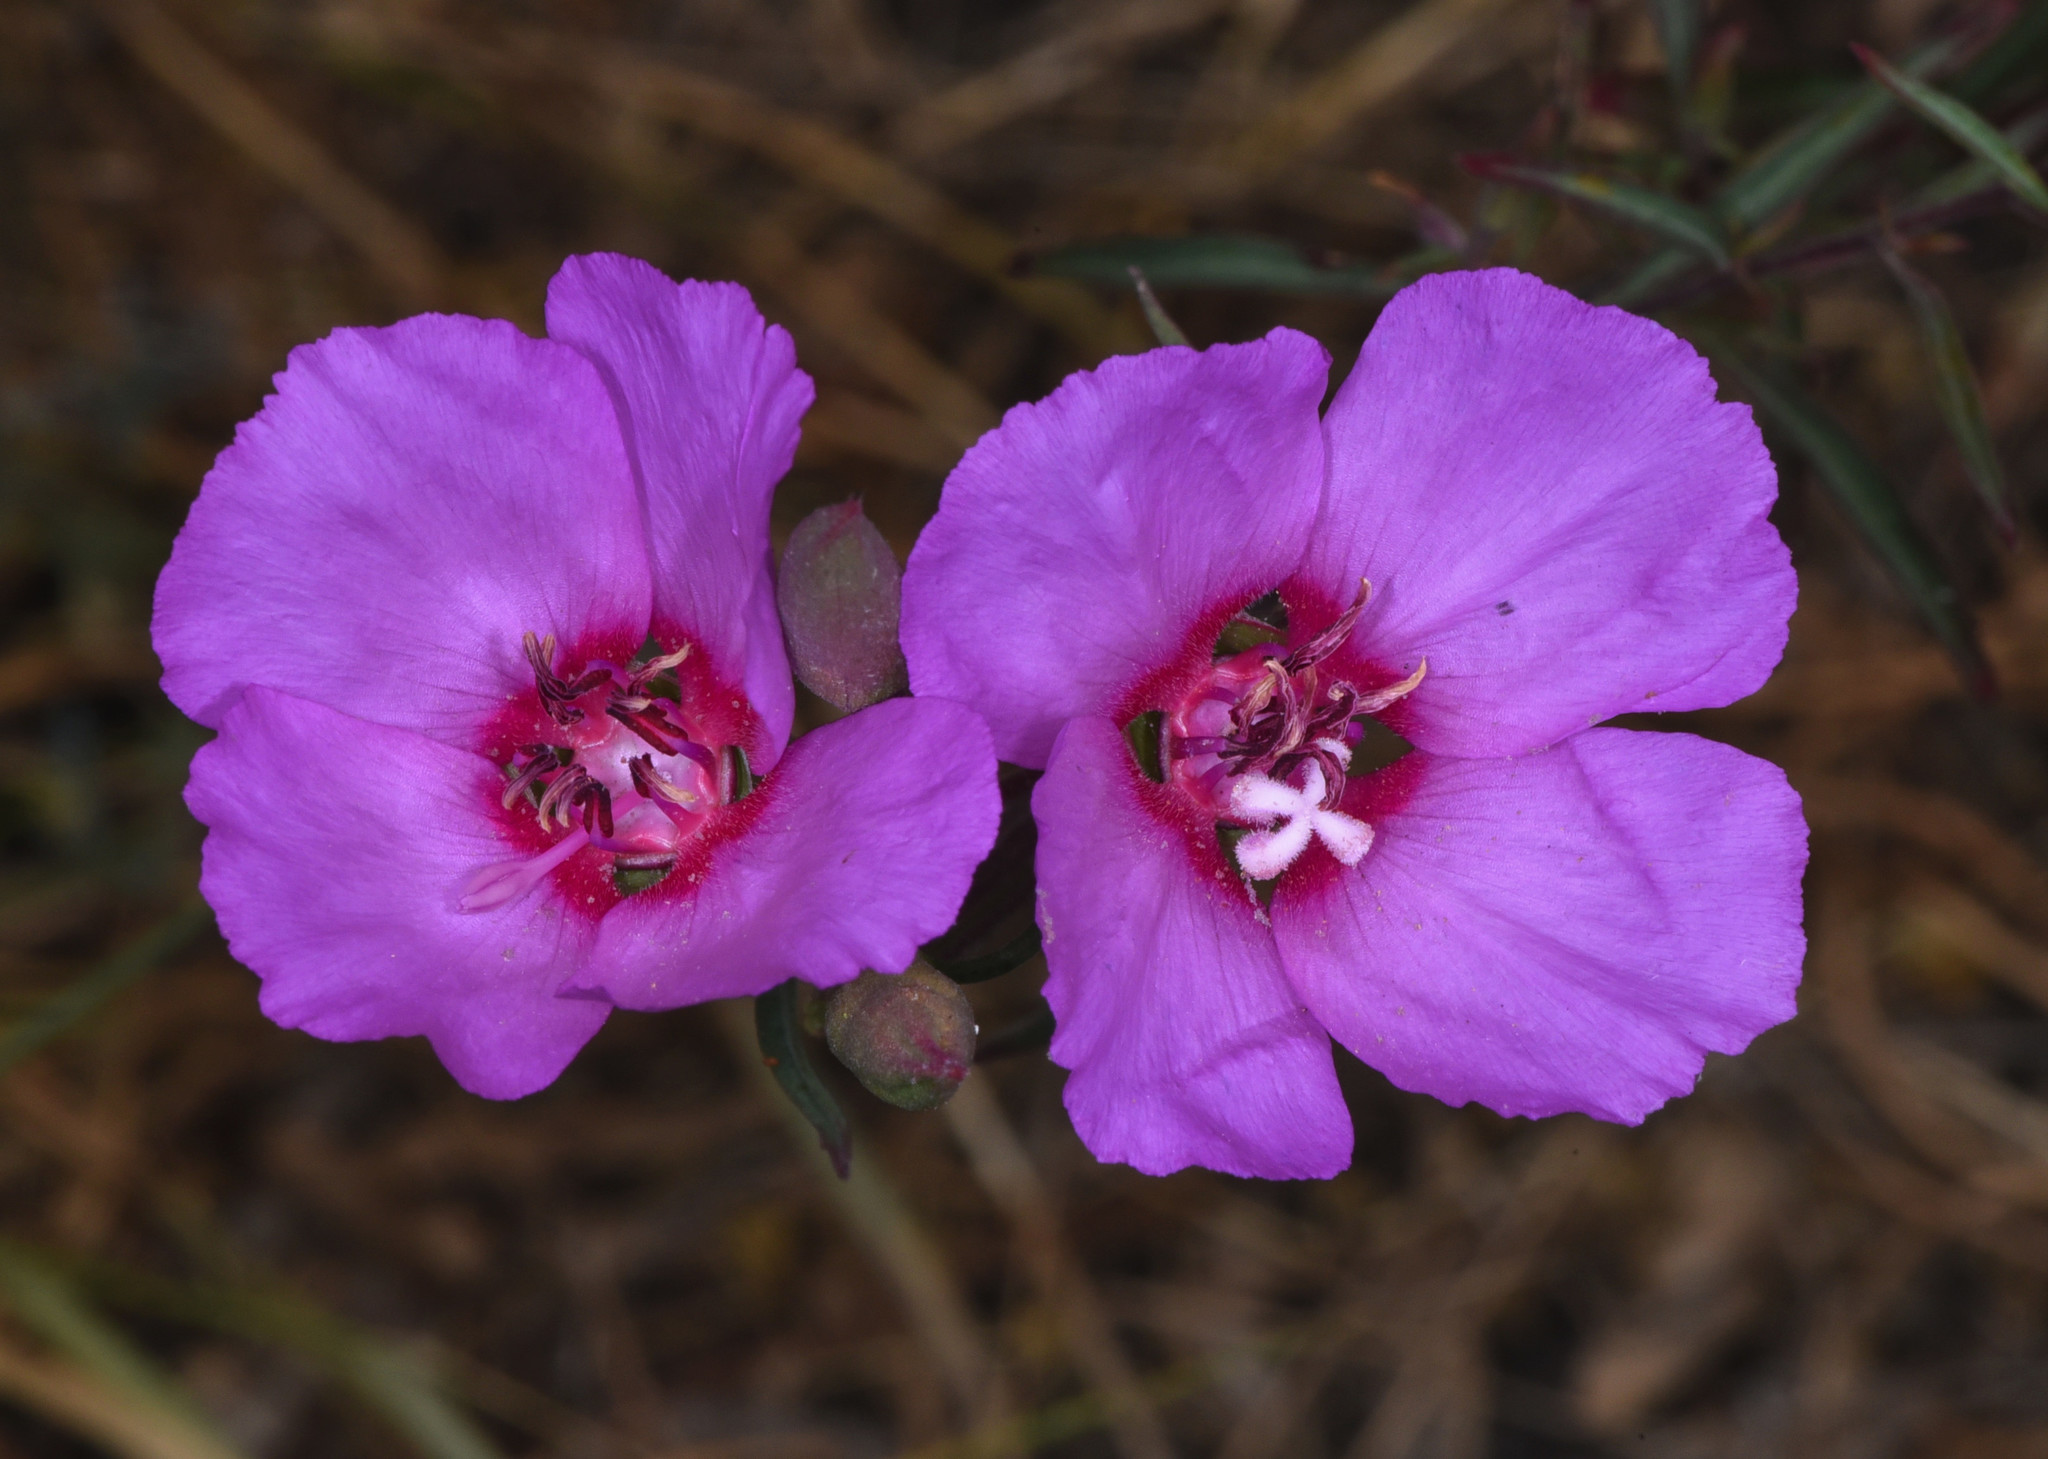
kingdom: Plantae
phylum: Tracheophyta
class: Magnoliopsida
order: Myrtales
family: Onagraceae
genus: Clarkia
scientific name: Clarkia rubicunda
